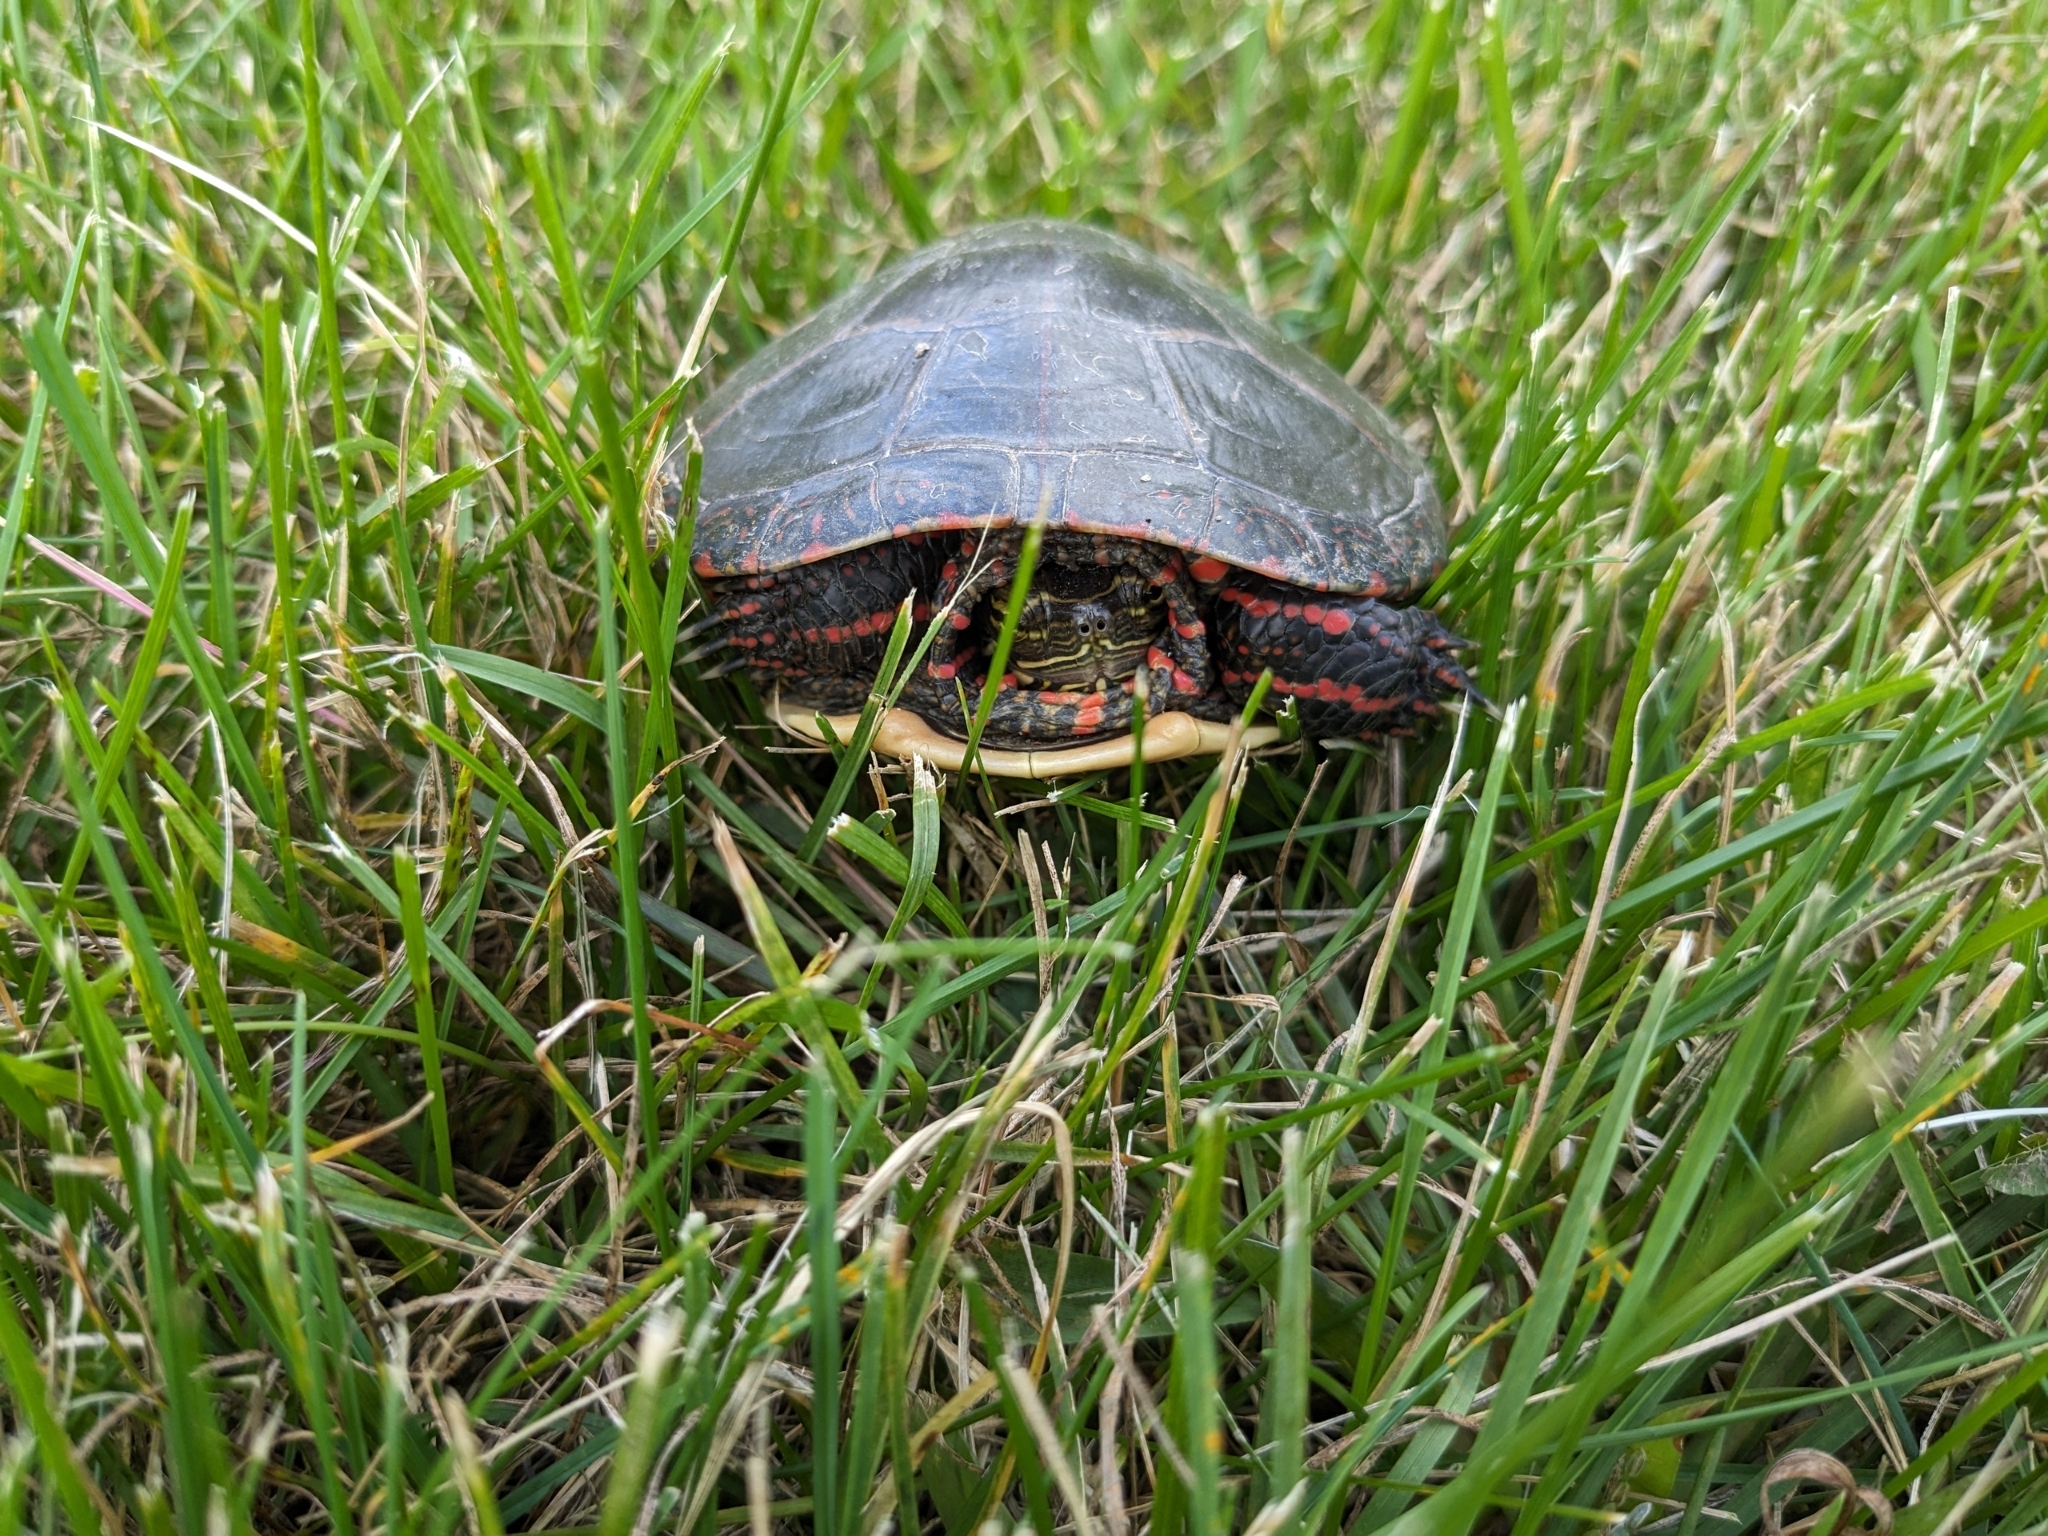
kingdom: Animalia
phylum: Chordata
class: Testudines
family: Emydidae
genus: Chrysemys
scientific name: Chrysemys picta
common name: Painted turtle
